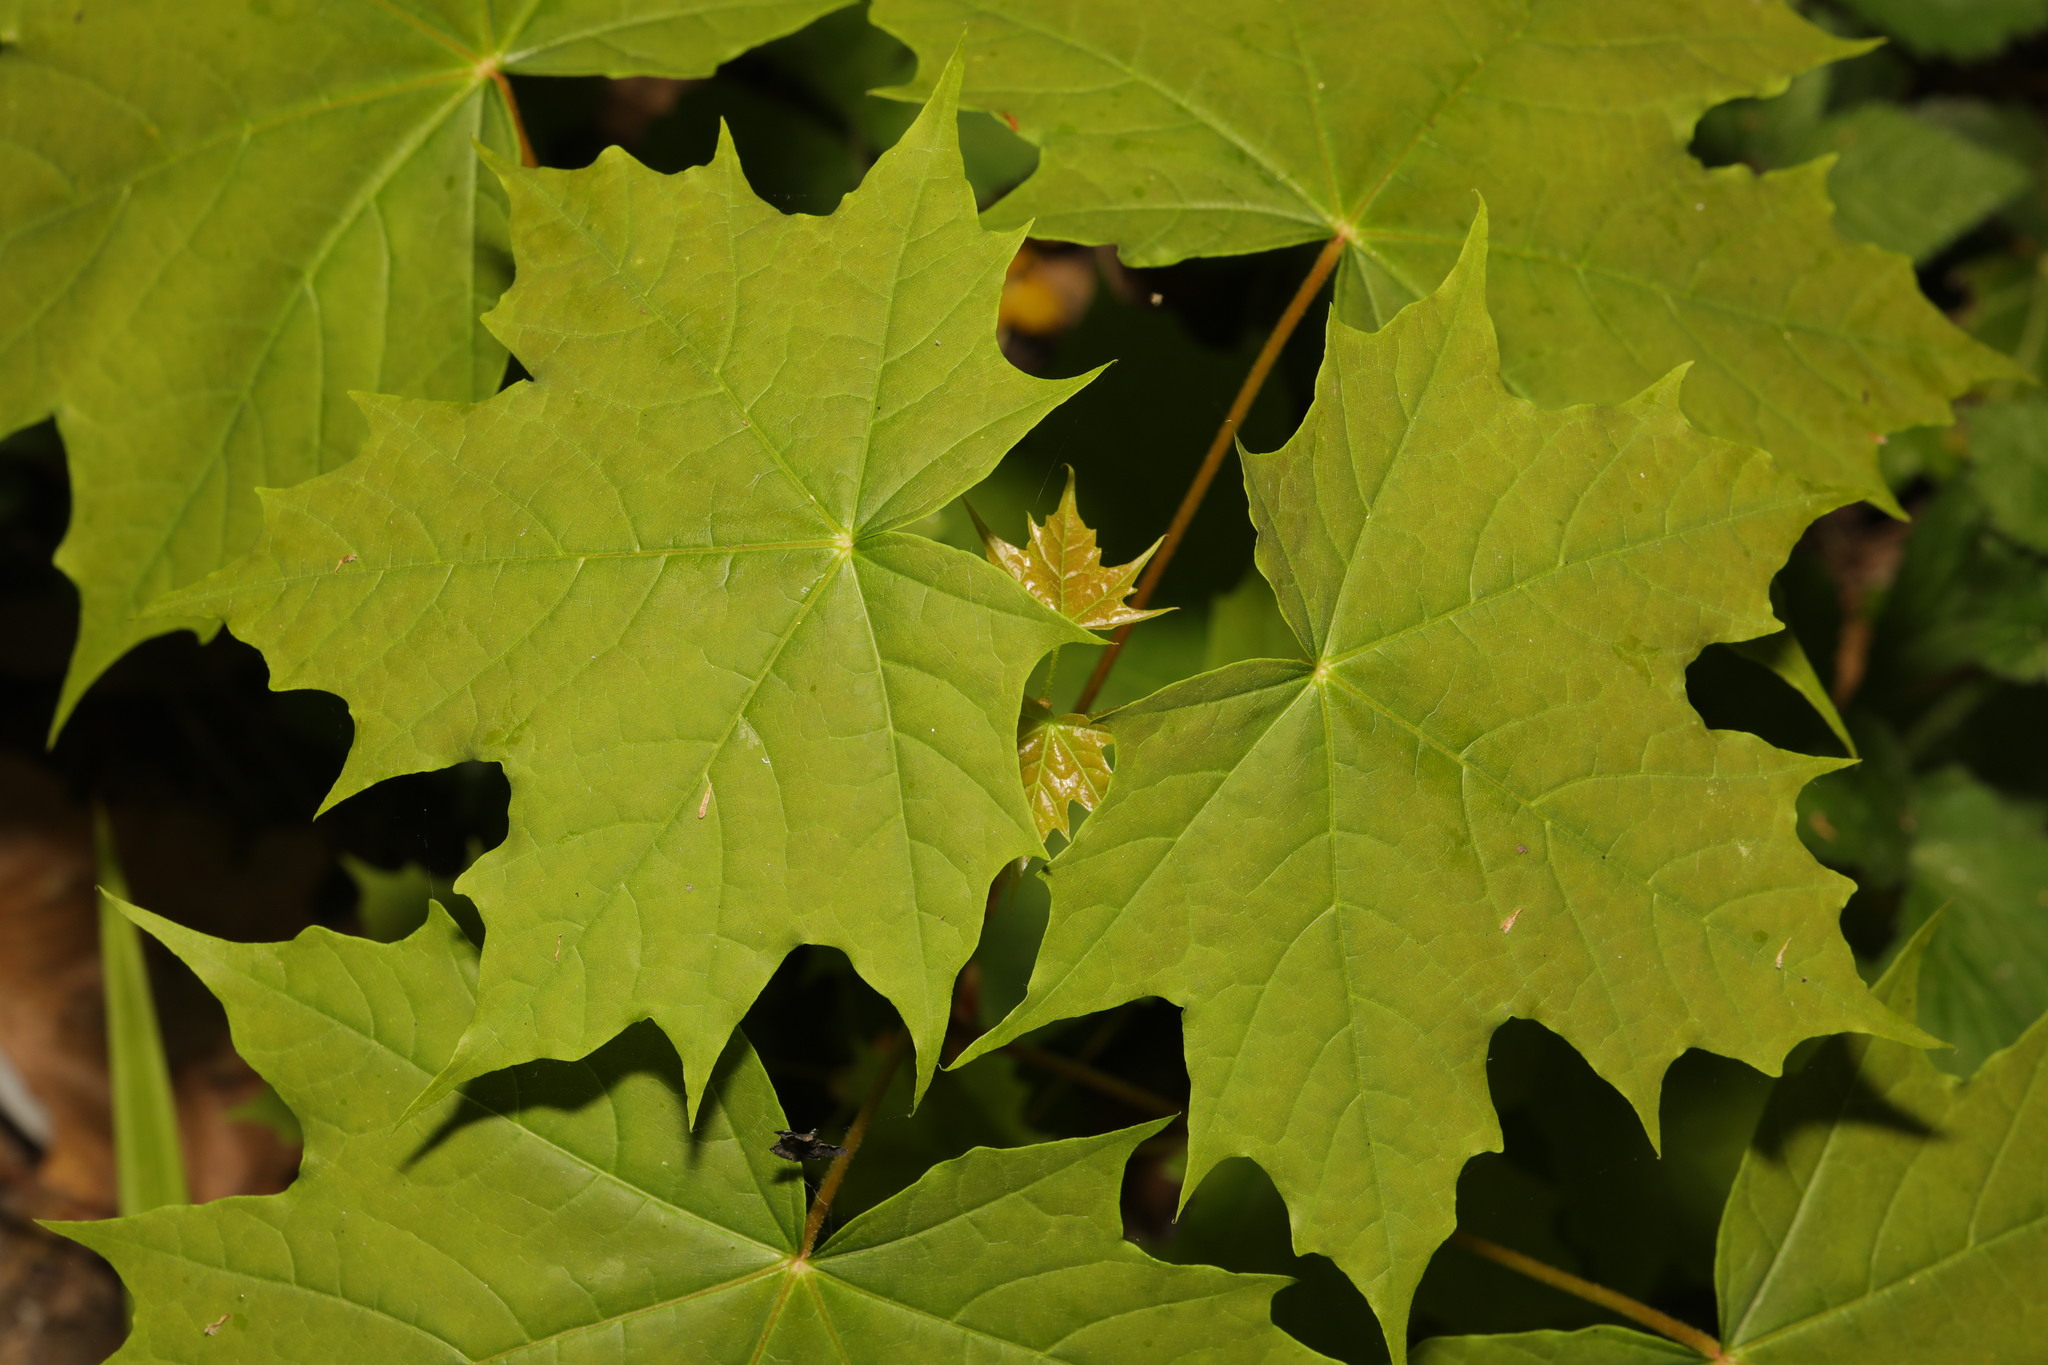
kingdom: Plantae
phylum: Tracheophyta
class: Magnoliopsida
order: Sapindales
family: Sapindaceae
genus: Acer
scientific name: Acer platanoides
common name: Norway maple
